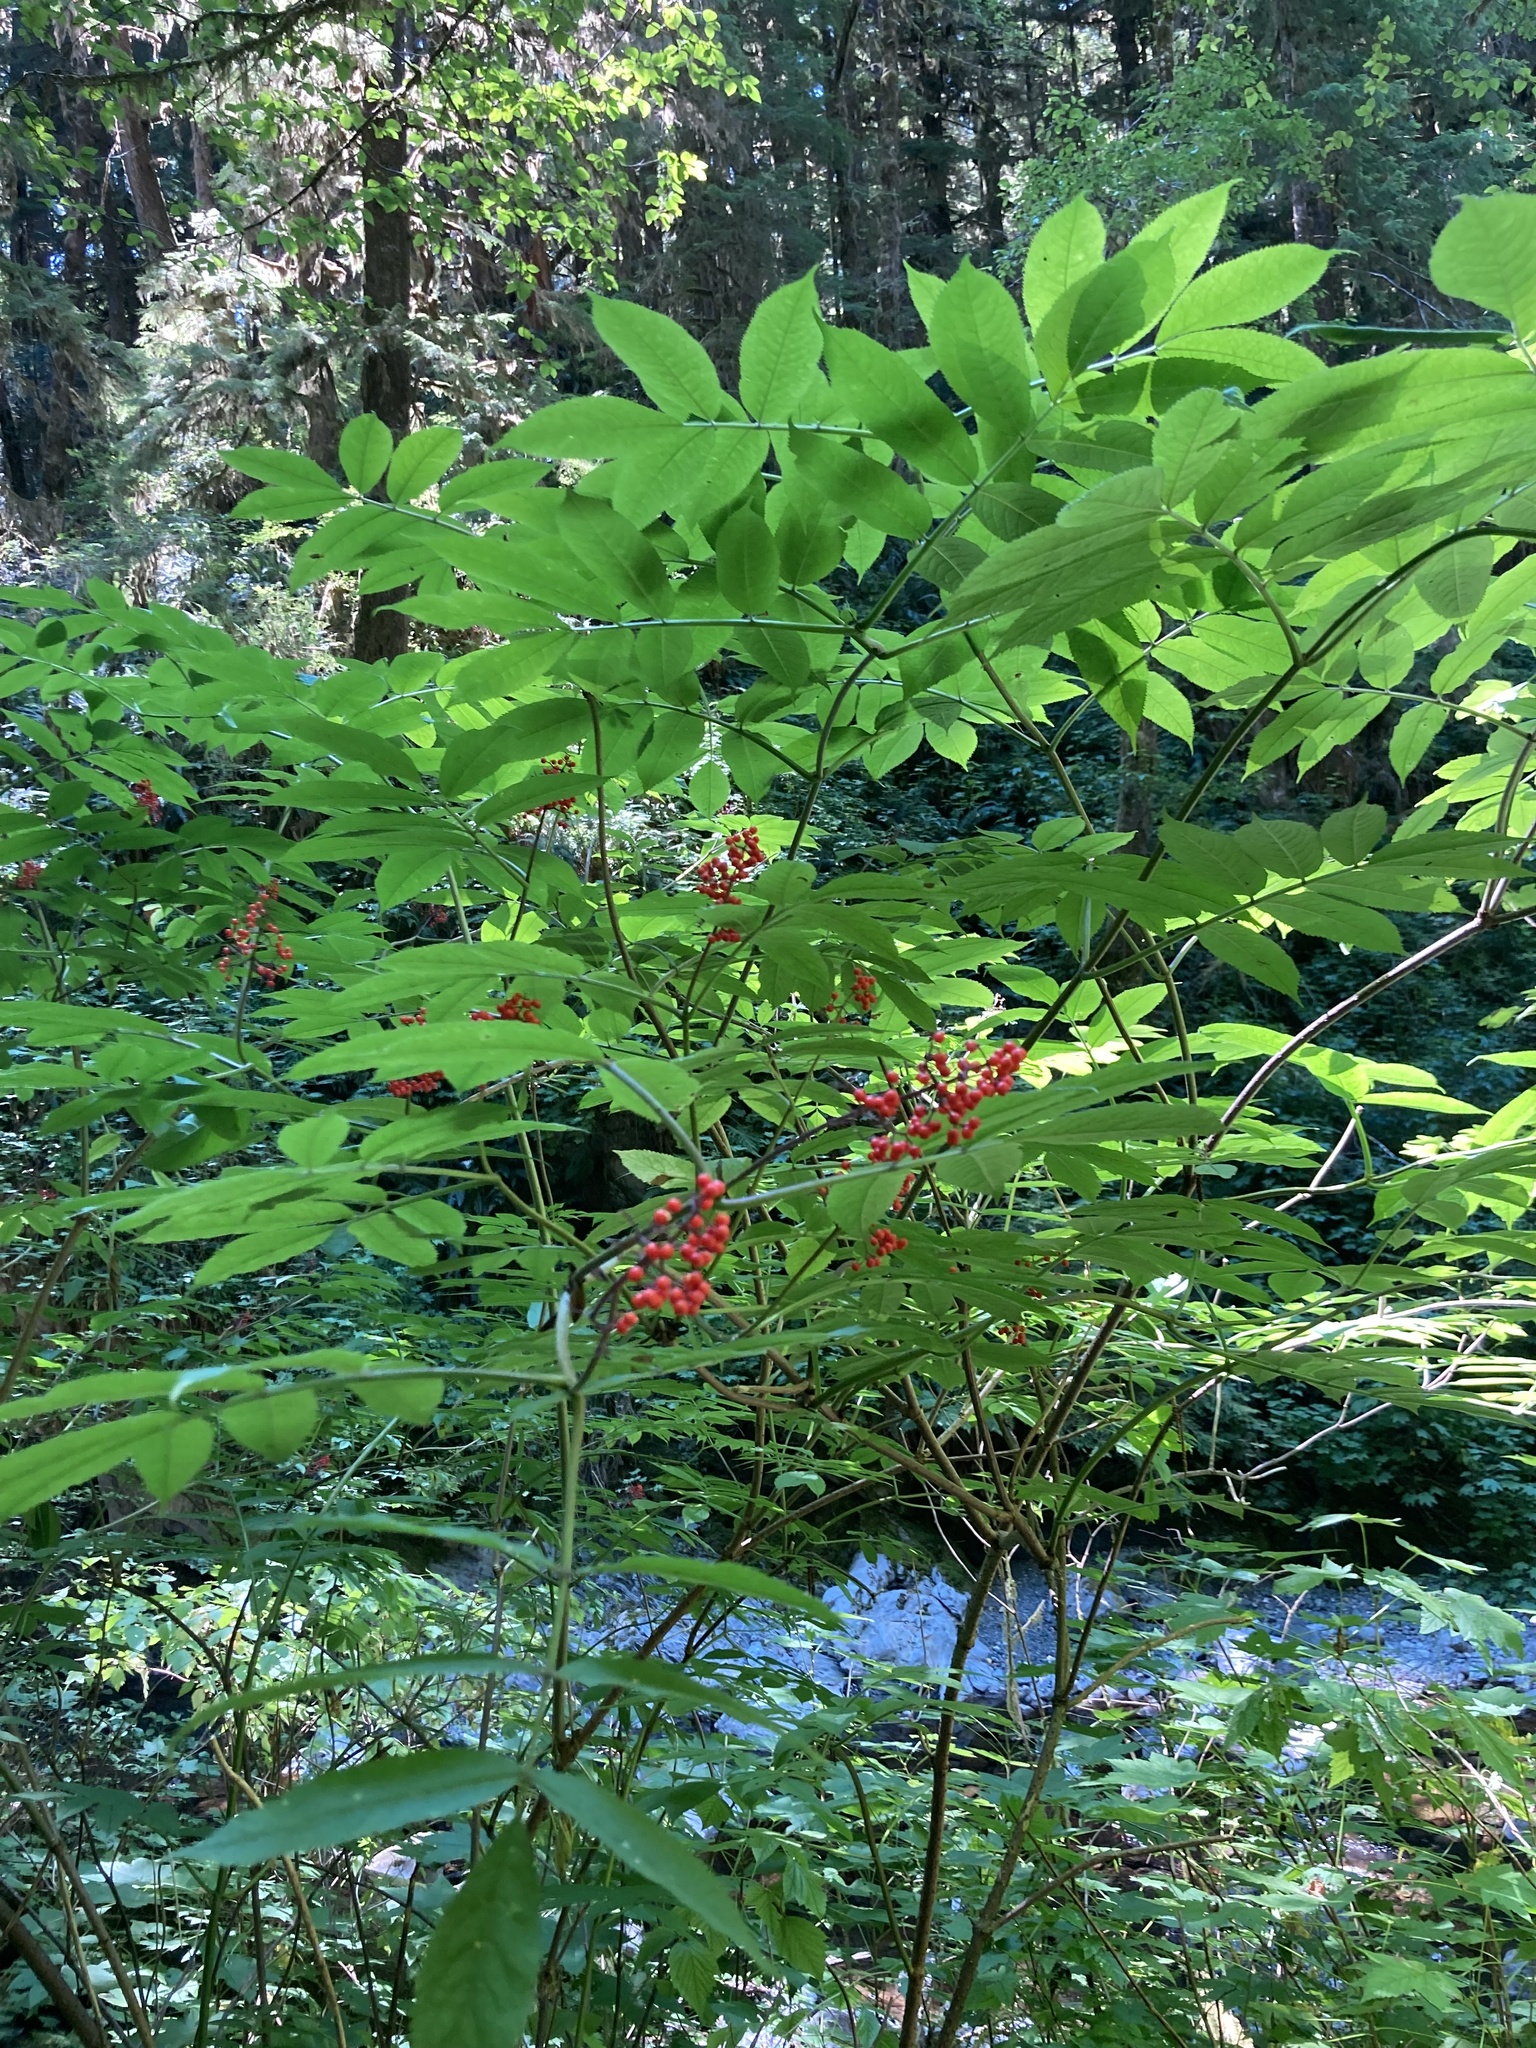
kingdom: Plantae
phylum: Tracheophyta
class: Magnoliopsida
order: Dipsacales
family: Viburnaceae
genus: Sambucus
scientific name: Sambucus racemosa
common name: Red-berried elder
